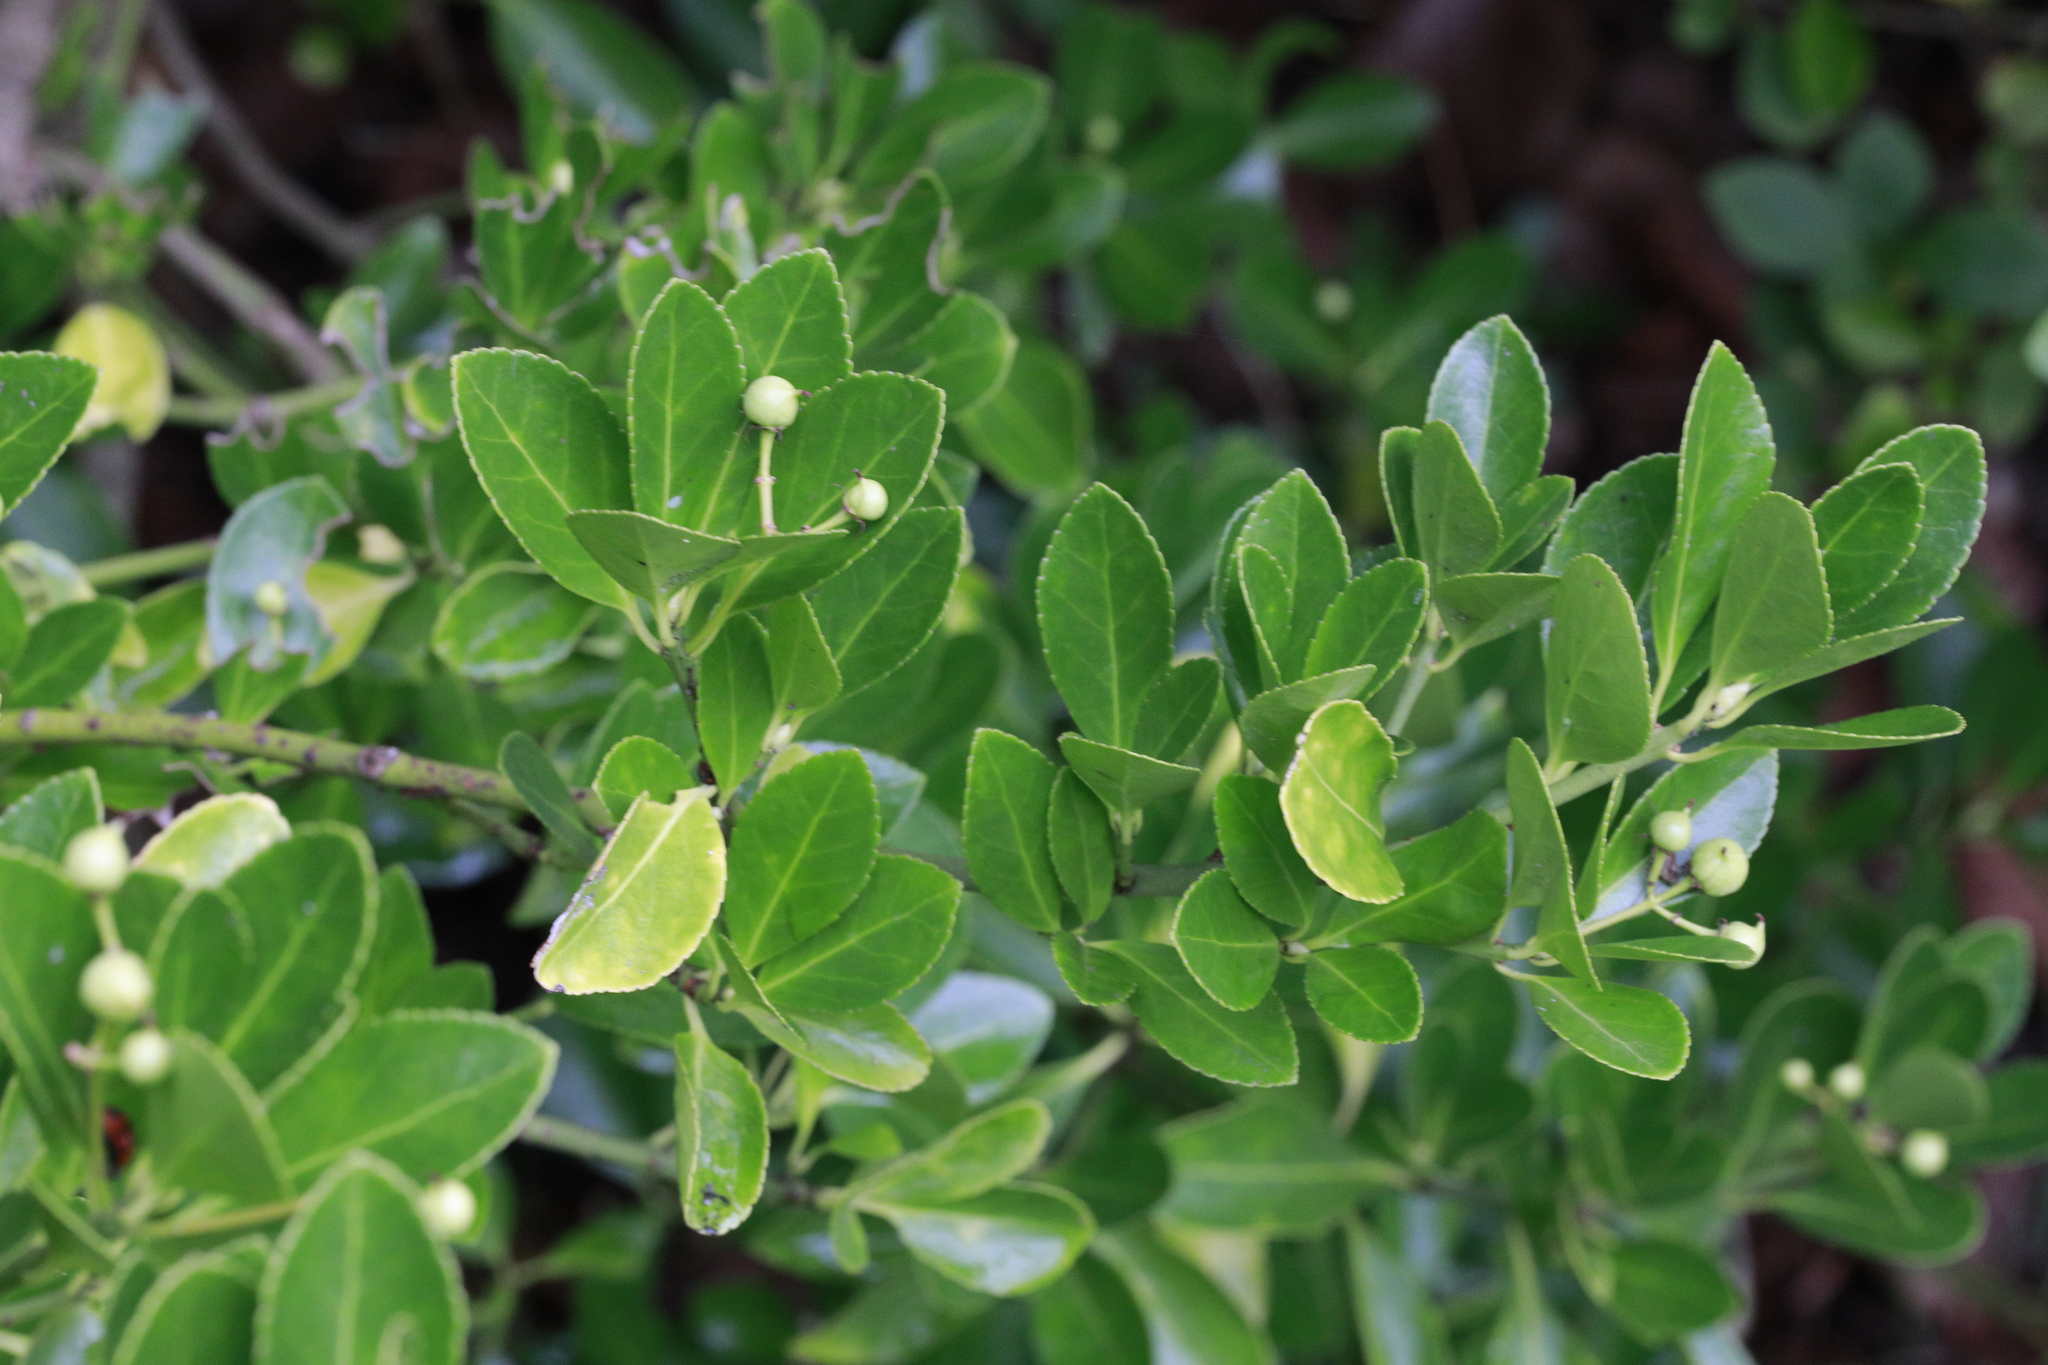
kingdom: Plantae
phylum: Tracheophyta
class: Magnoliopsida
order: Celastrales
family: Celastraceae
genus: Euonymus
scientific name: Euonymus japonicus
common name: Japanese spindletree
